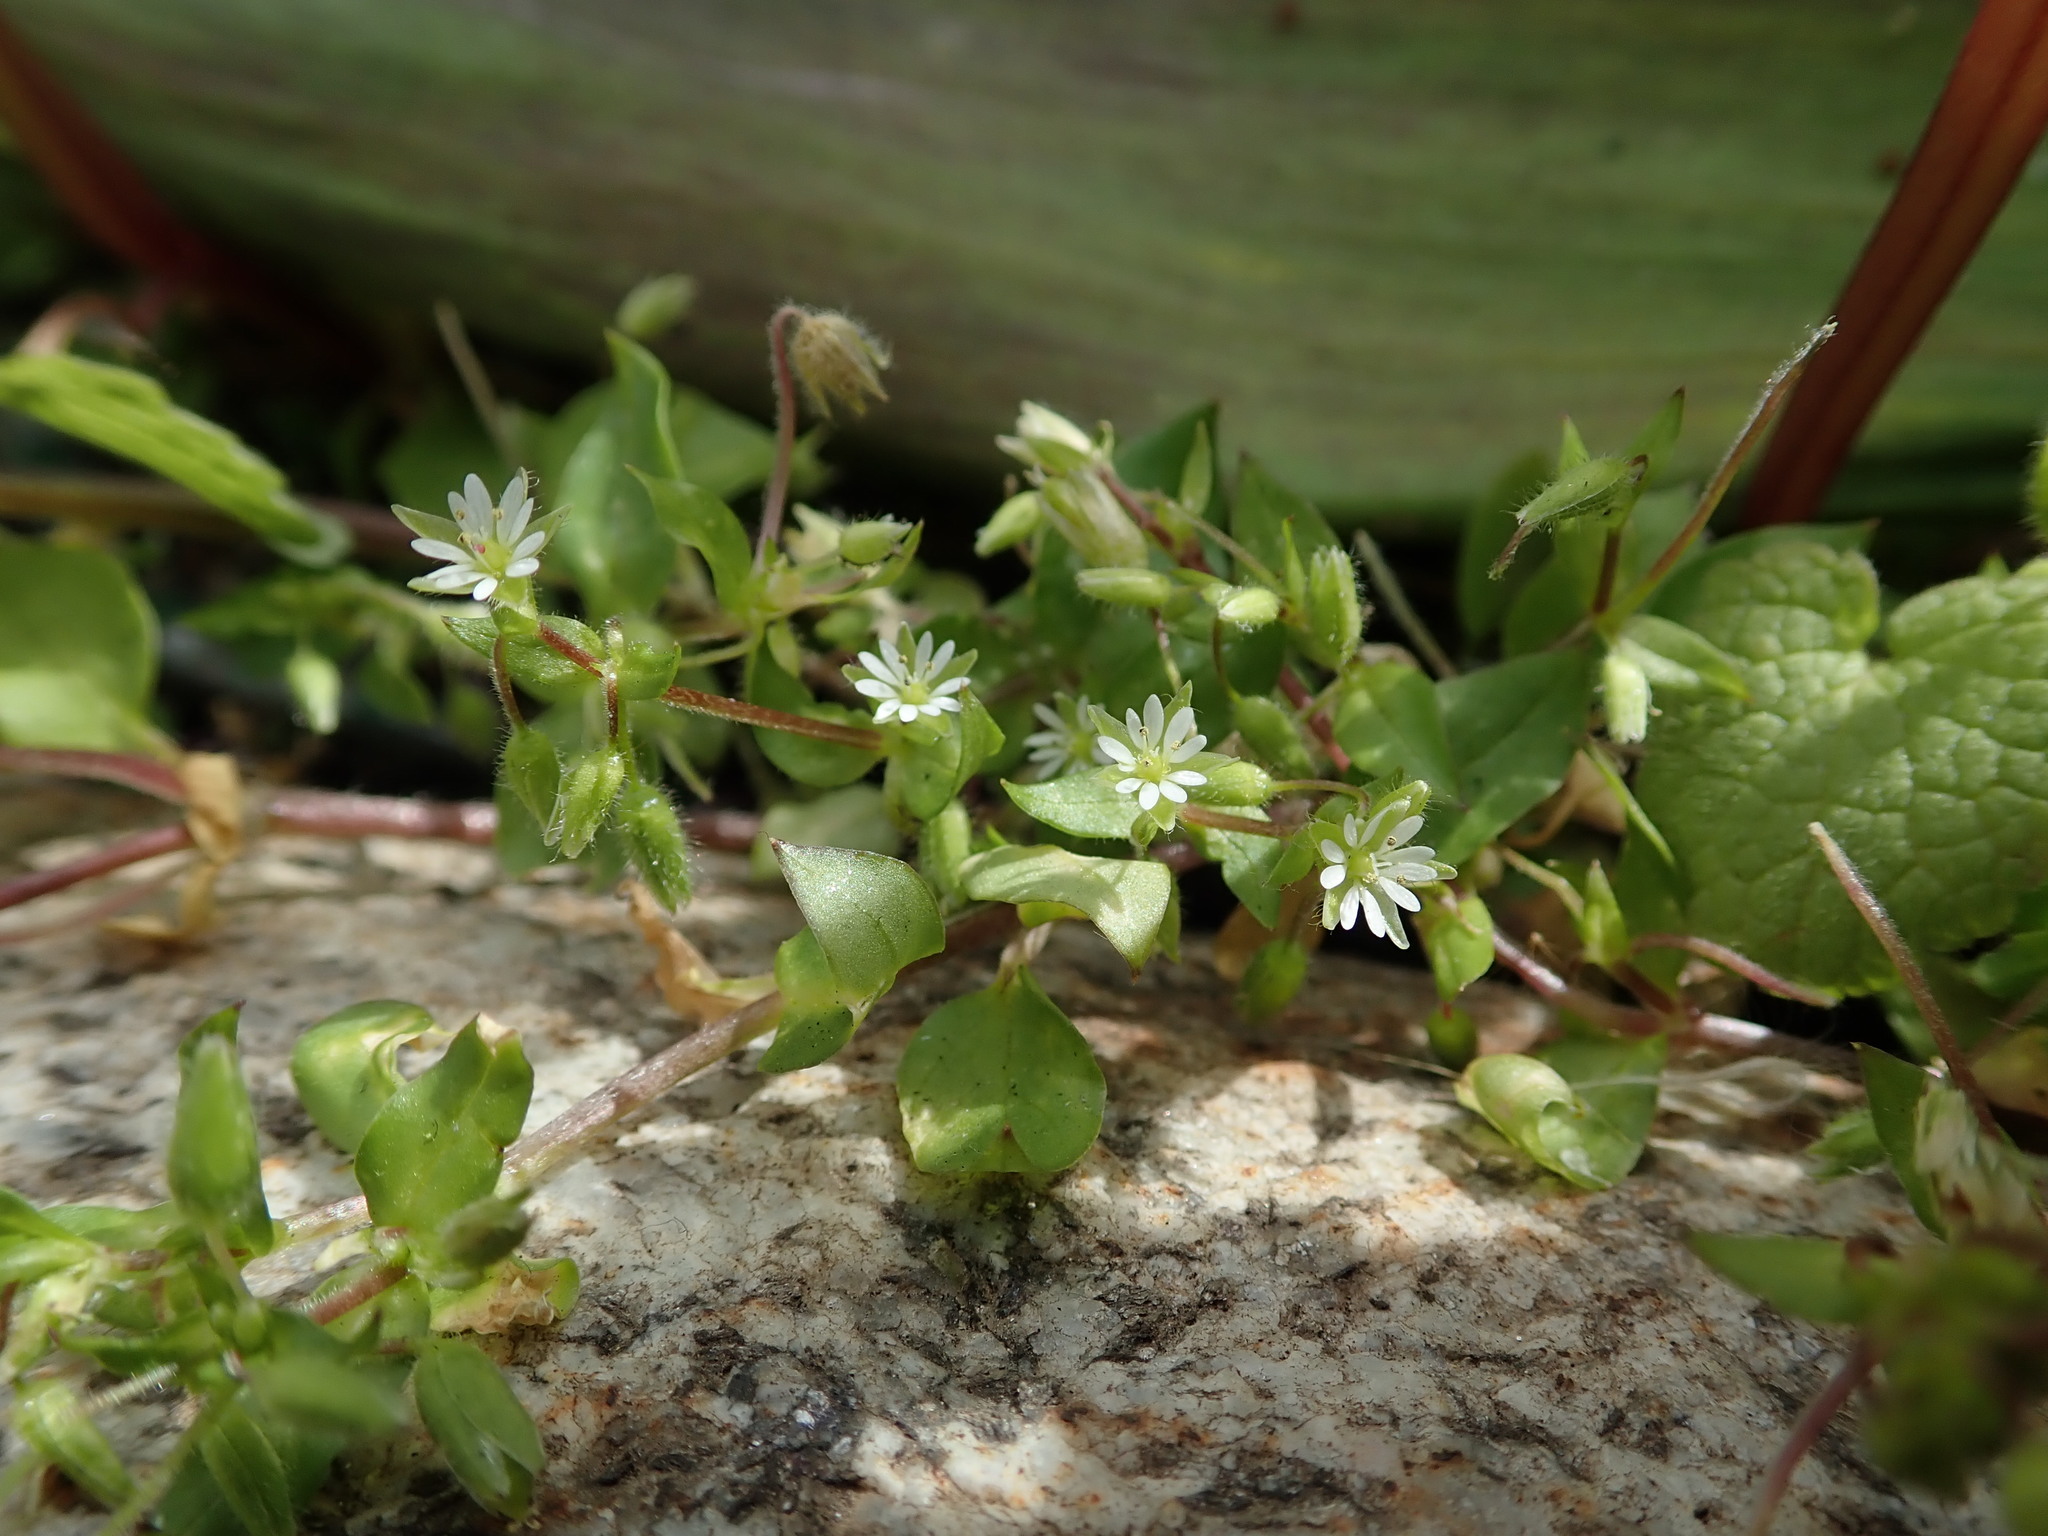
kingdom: Plantae
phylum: Tracheophyta
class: Magnoliopsida
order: Caryophyllales
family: Caryophyllaceae
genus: Stellaria
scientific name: Stellaria media
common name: Common chickweed
